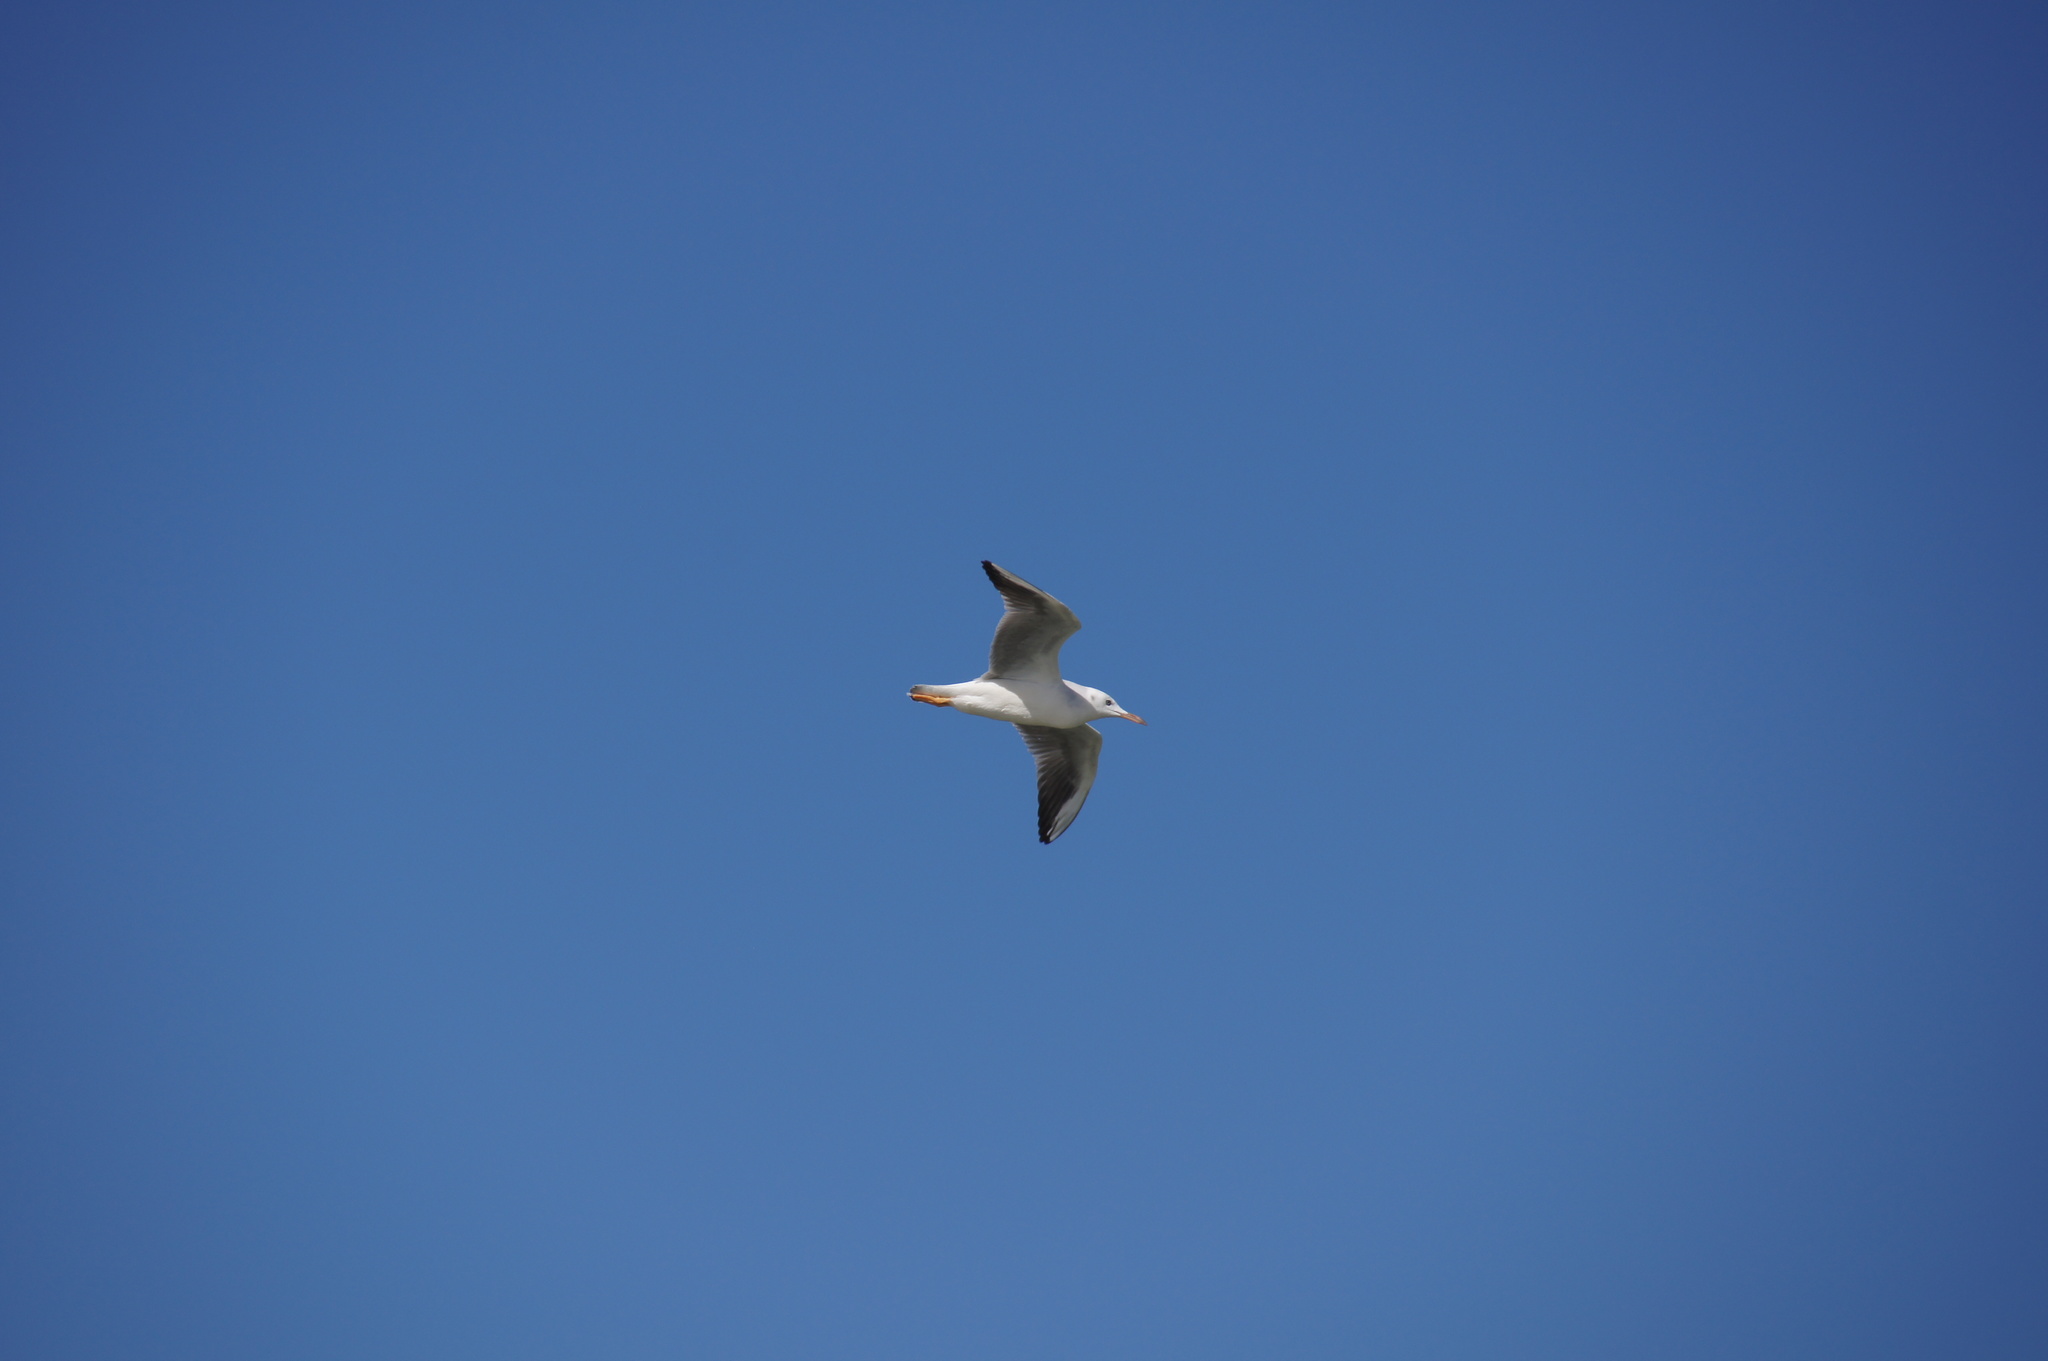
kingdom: Animalia
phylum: Chordata
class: Aves
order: Charadriiformes
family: Laridae
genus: Chroicocephalus
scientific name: Chroicocephalus genei
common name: Slender-billed gull
